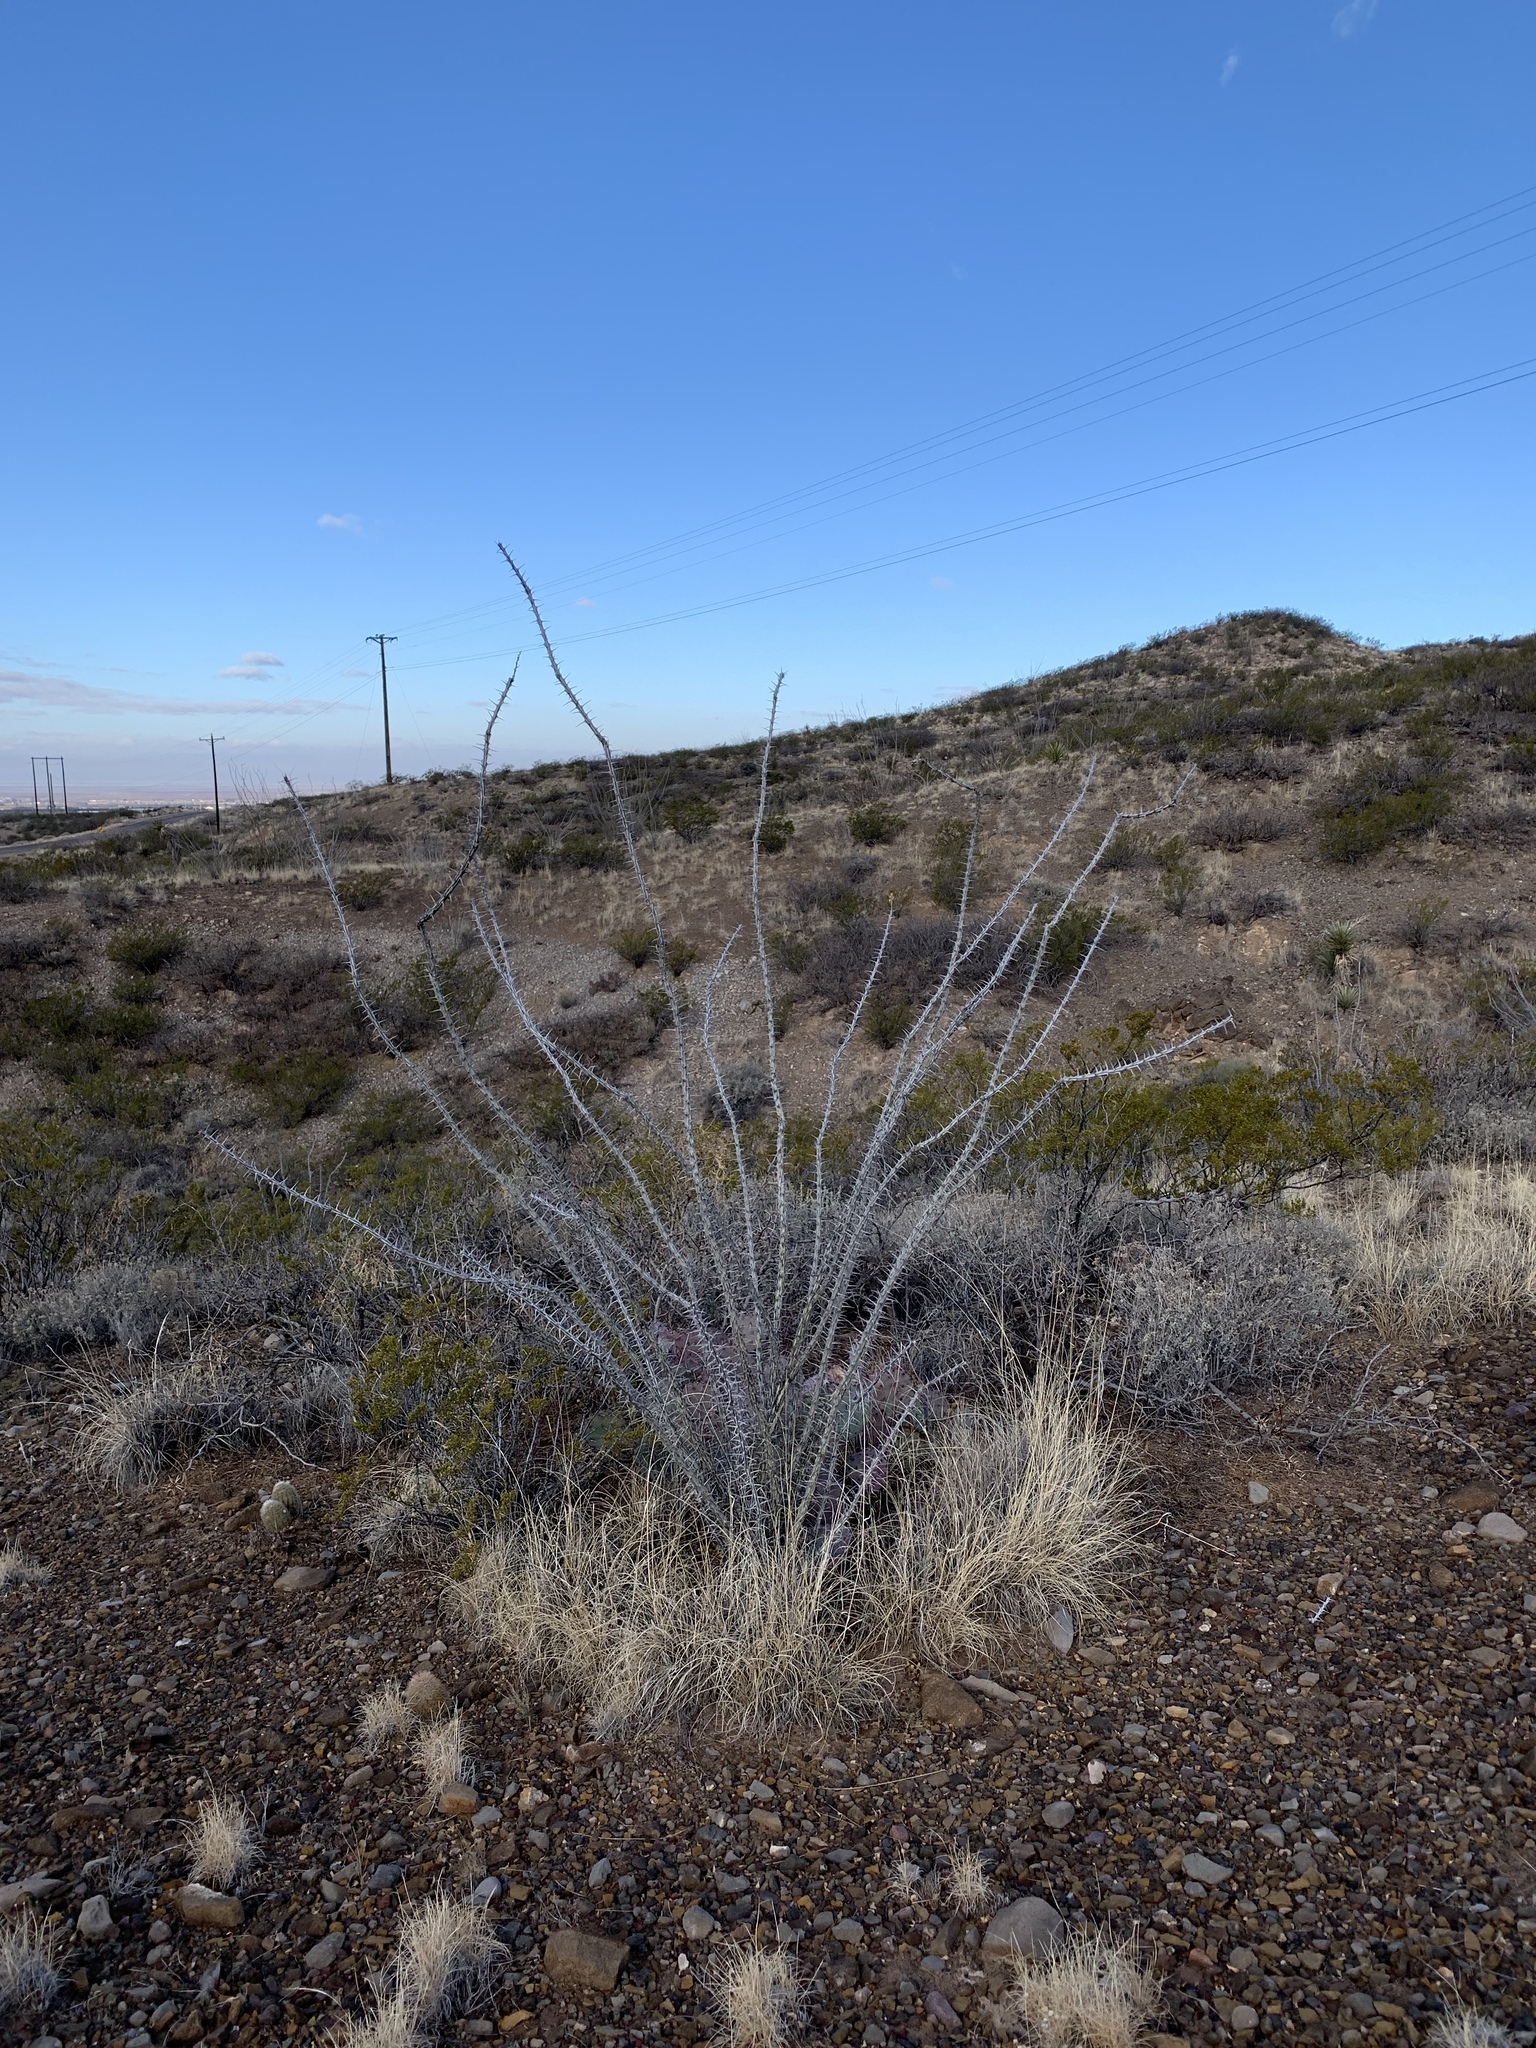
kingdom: Plantae
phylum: Tracheophyta
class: Magnoliopsida
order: Ericales
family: Fouquieriaceae
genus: Fouquieria
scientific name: Fouquieria splendens
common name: Vine-cactus
